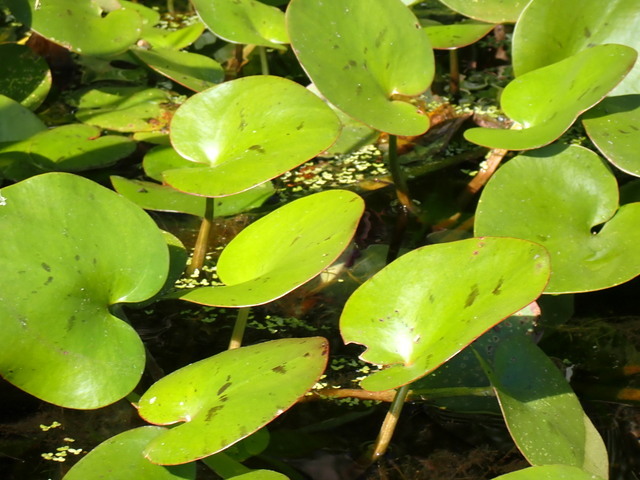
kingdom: Plantae
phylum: Tracheophyta
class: Liliopsida
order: Alismatales
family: Hydrocharitaceae
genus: Hydrocharis
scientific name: Hydrocharis spongia
